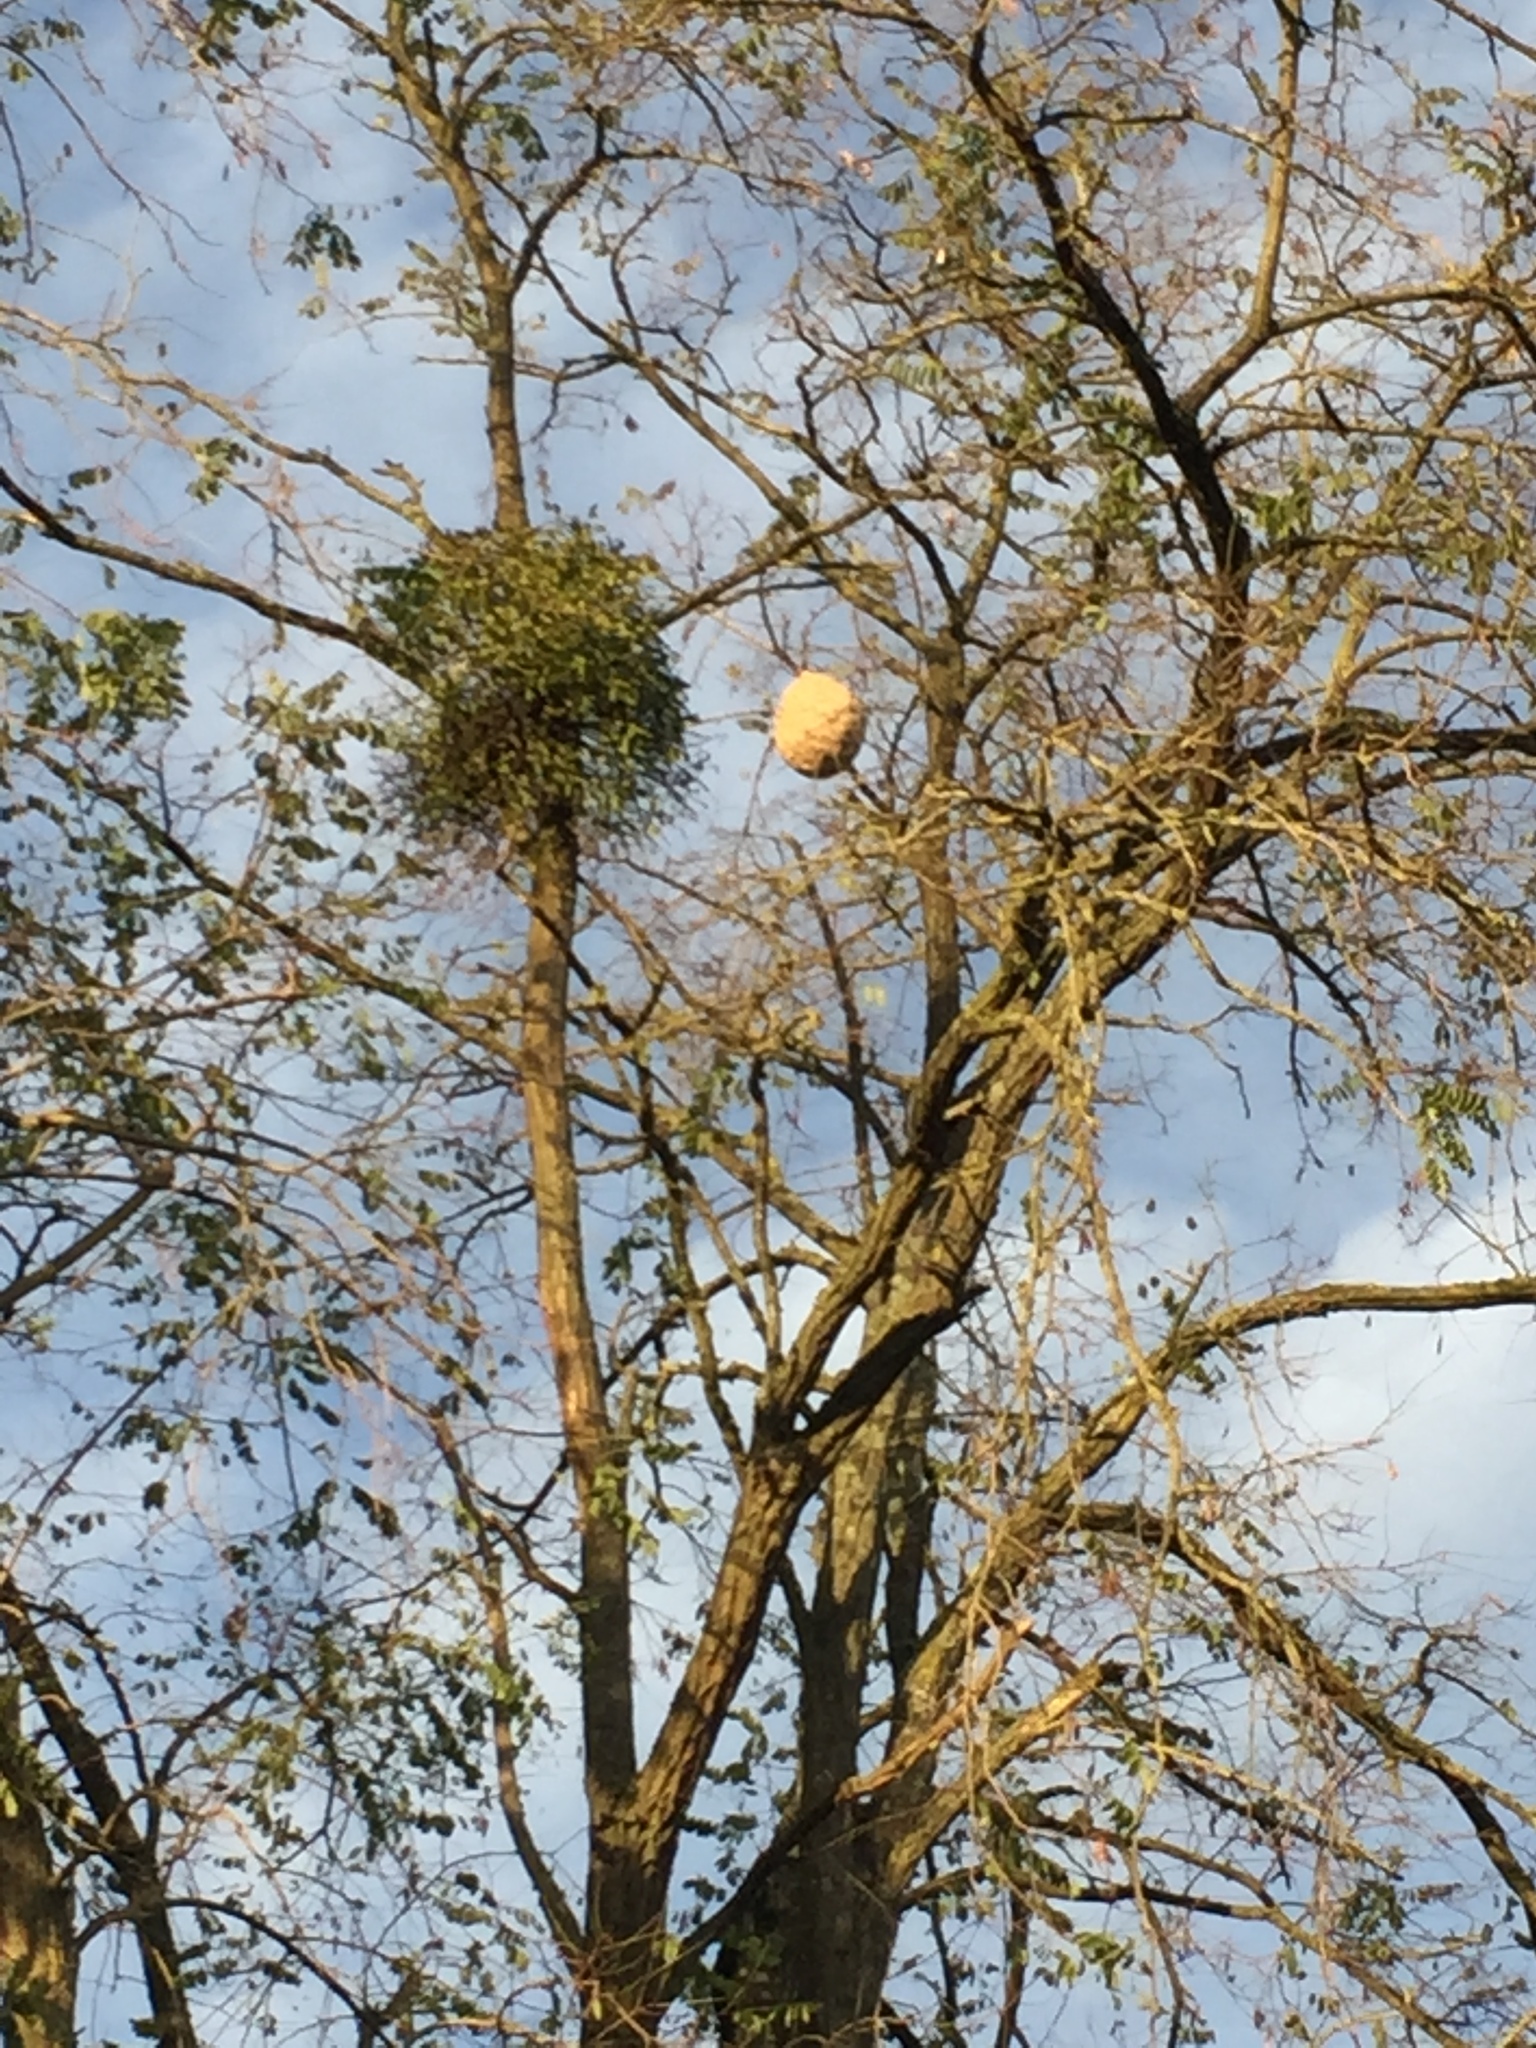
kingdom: Animalia
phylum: Arthropoda
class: Insecta
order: Hymenoptera
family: Vespidae
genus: Vespa
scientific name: Vespa velutina
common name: Asian hornet
